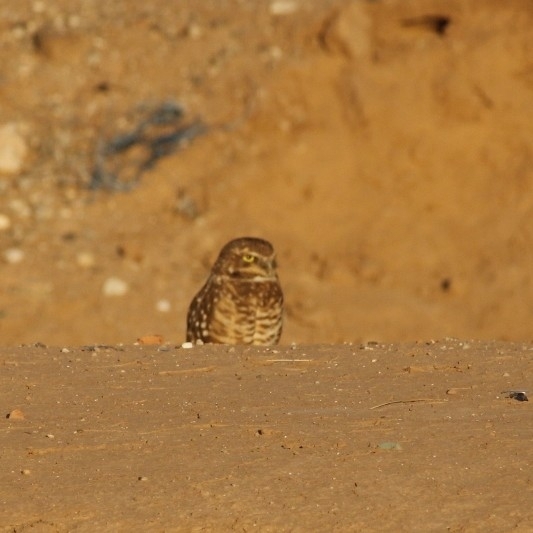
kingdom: Animalia
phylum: Chordata
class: Aves
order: Strigiformes
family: Strigidae
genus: Athene
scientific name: Athene cunicularia
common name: Burrowing owl
